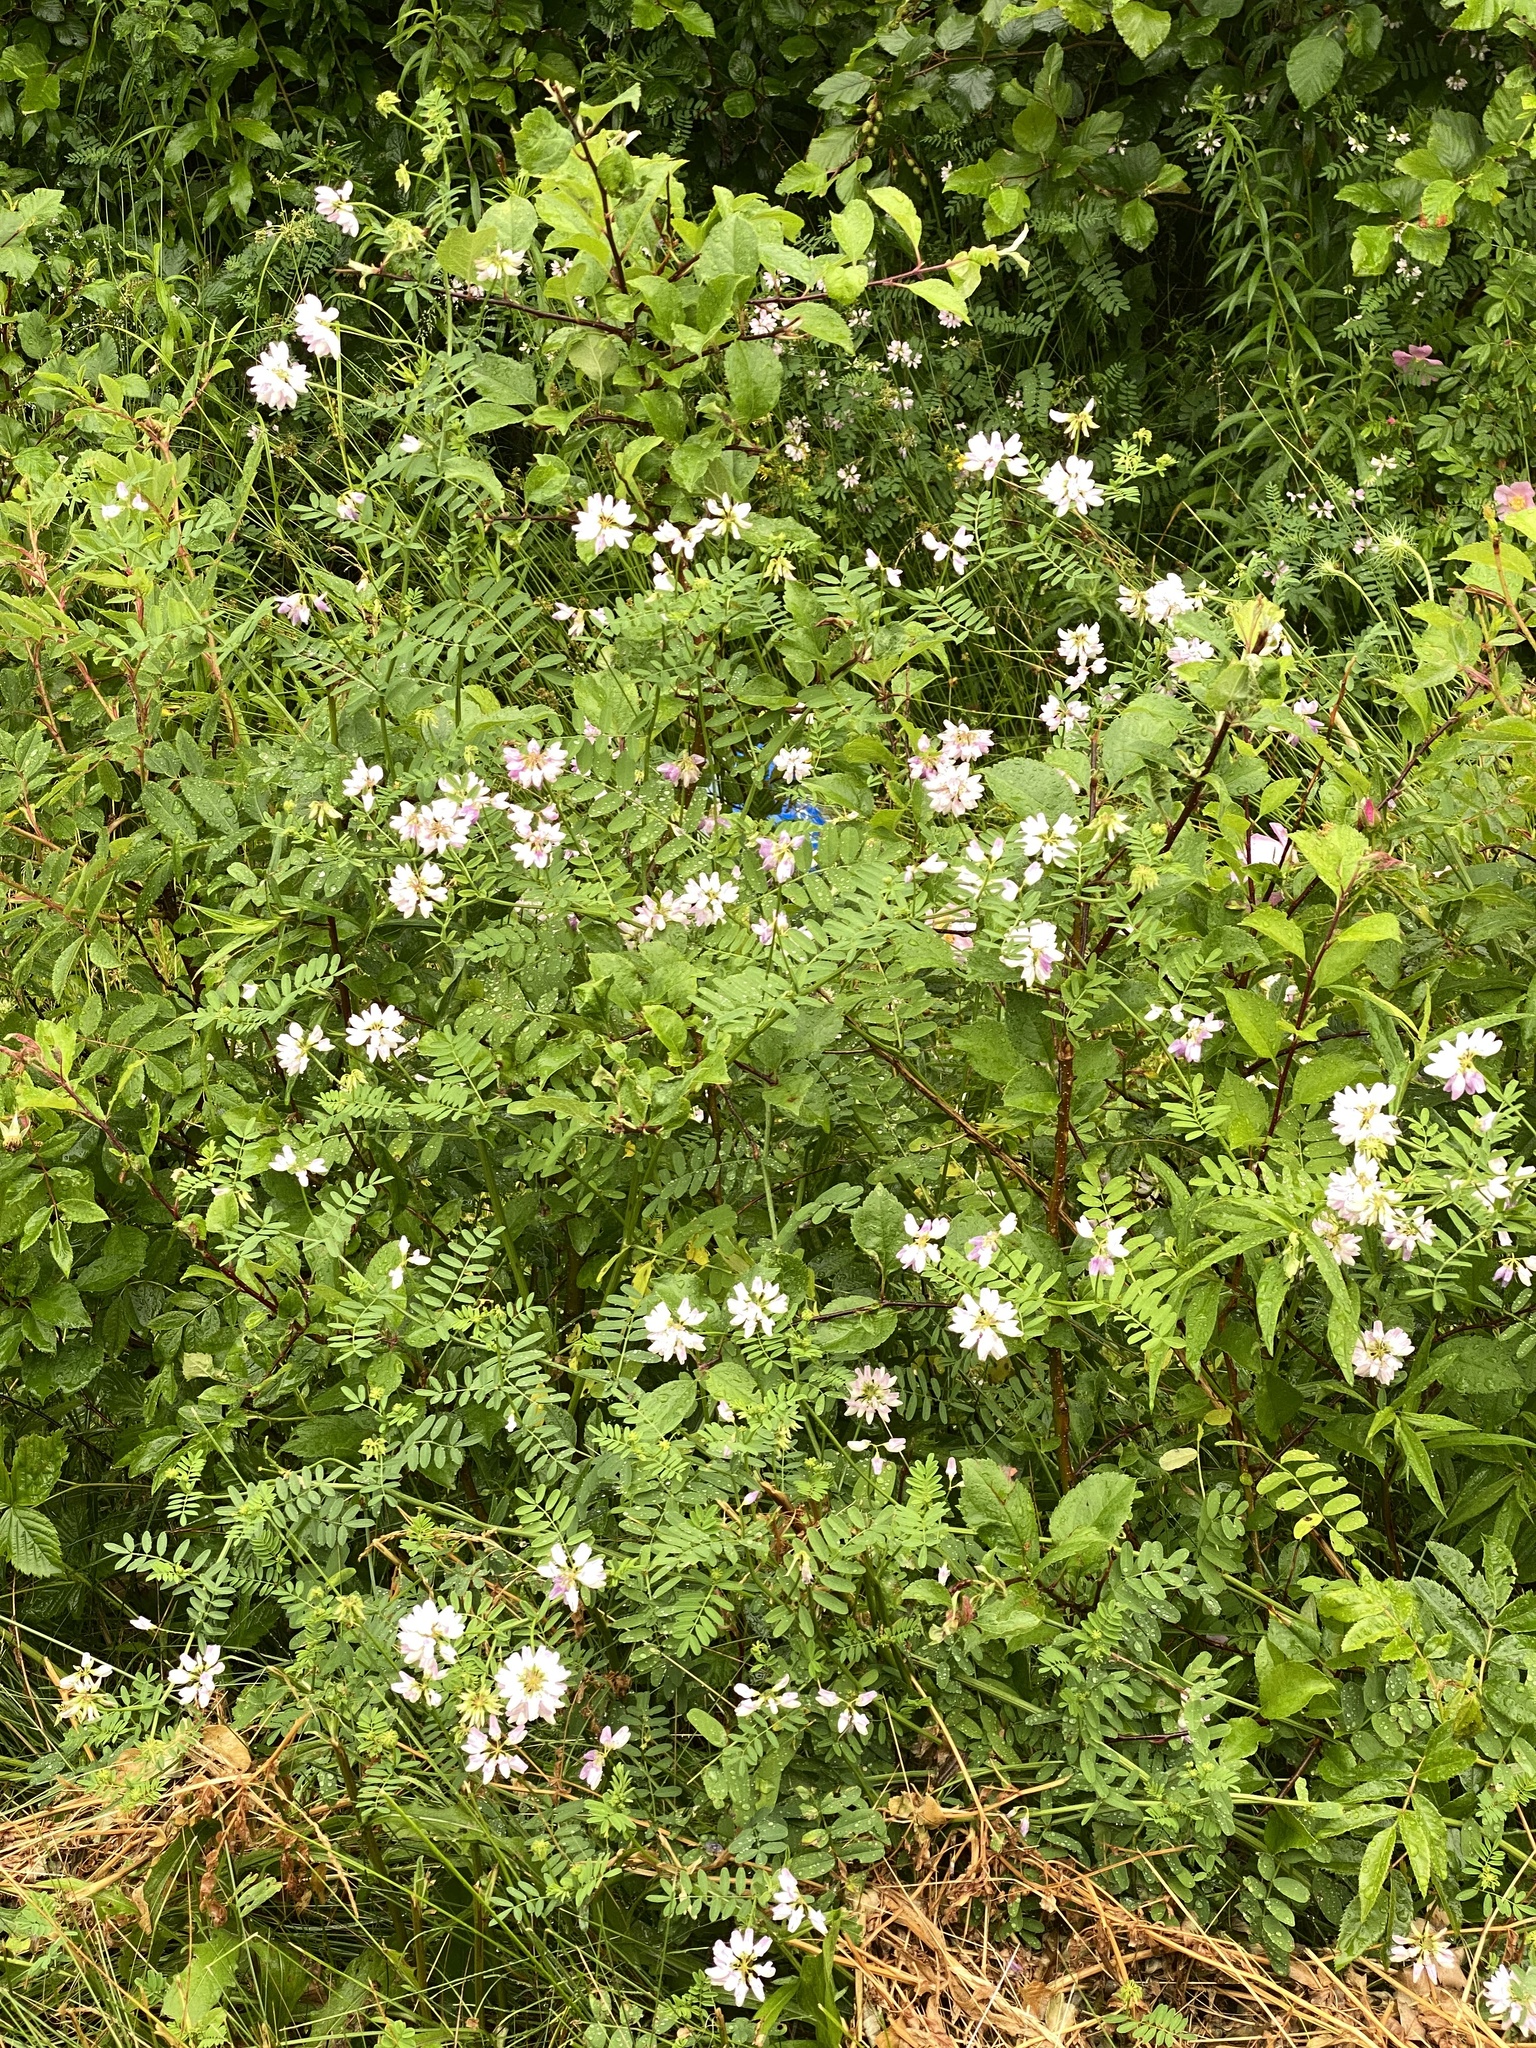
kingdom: Plantae
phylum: Tracheophyta
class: Magnoliopsida
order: Fabales
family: Fabaceae
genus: Coronilla
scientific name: Coronilla varia
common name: Crownvetch
